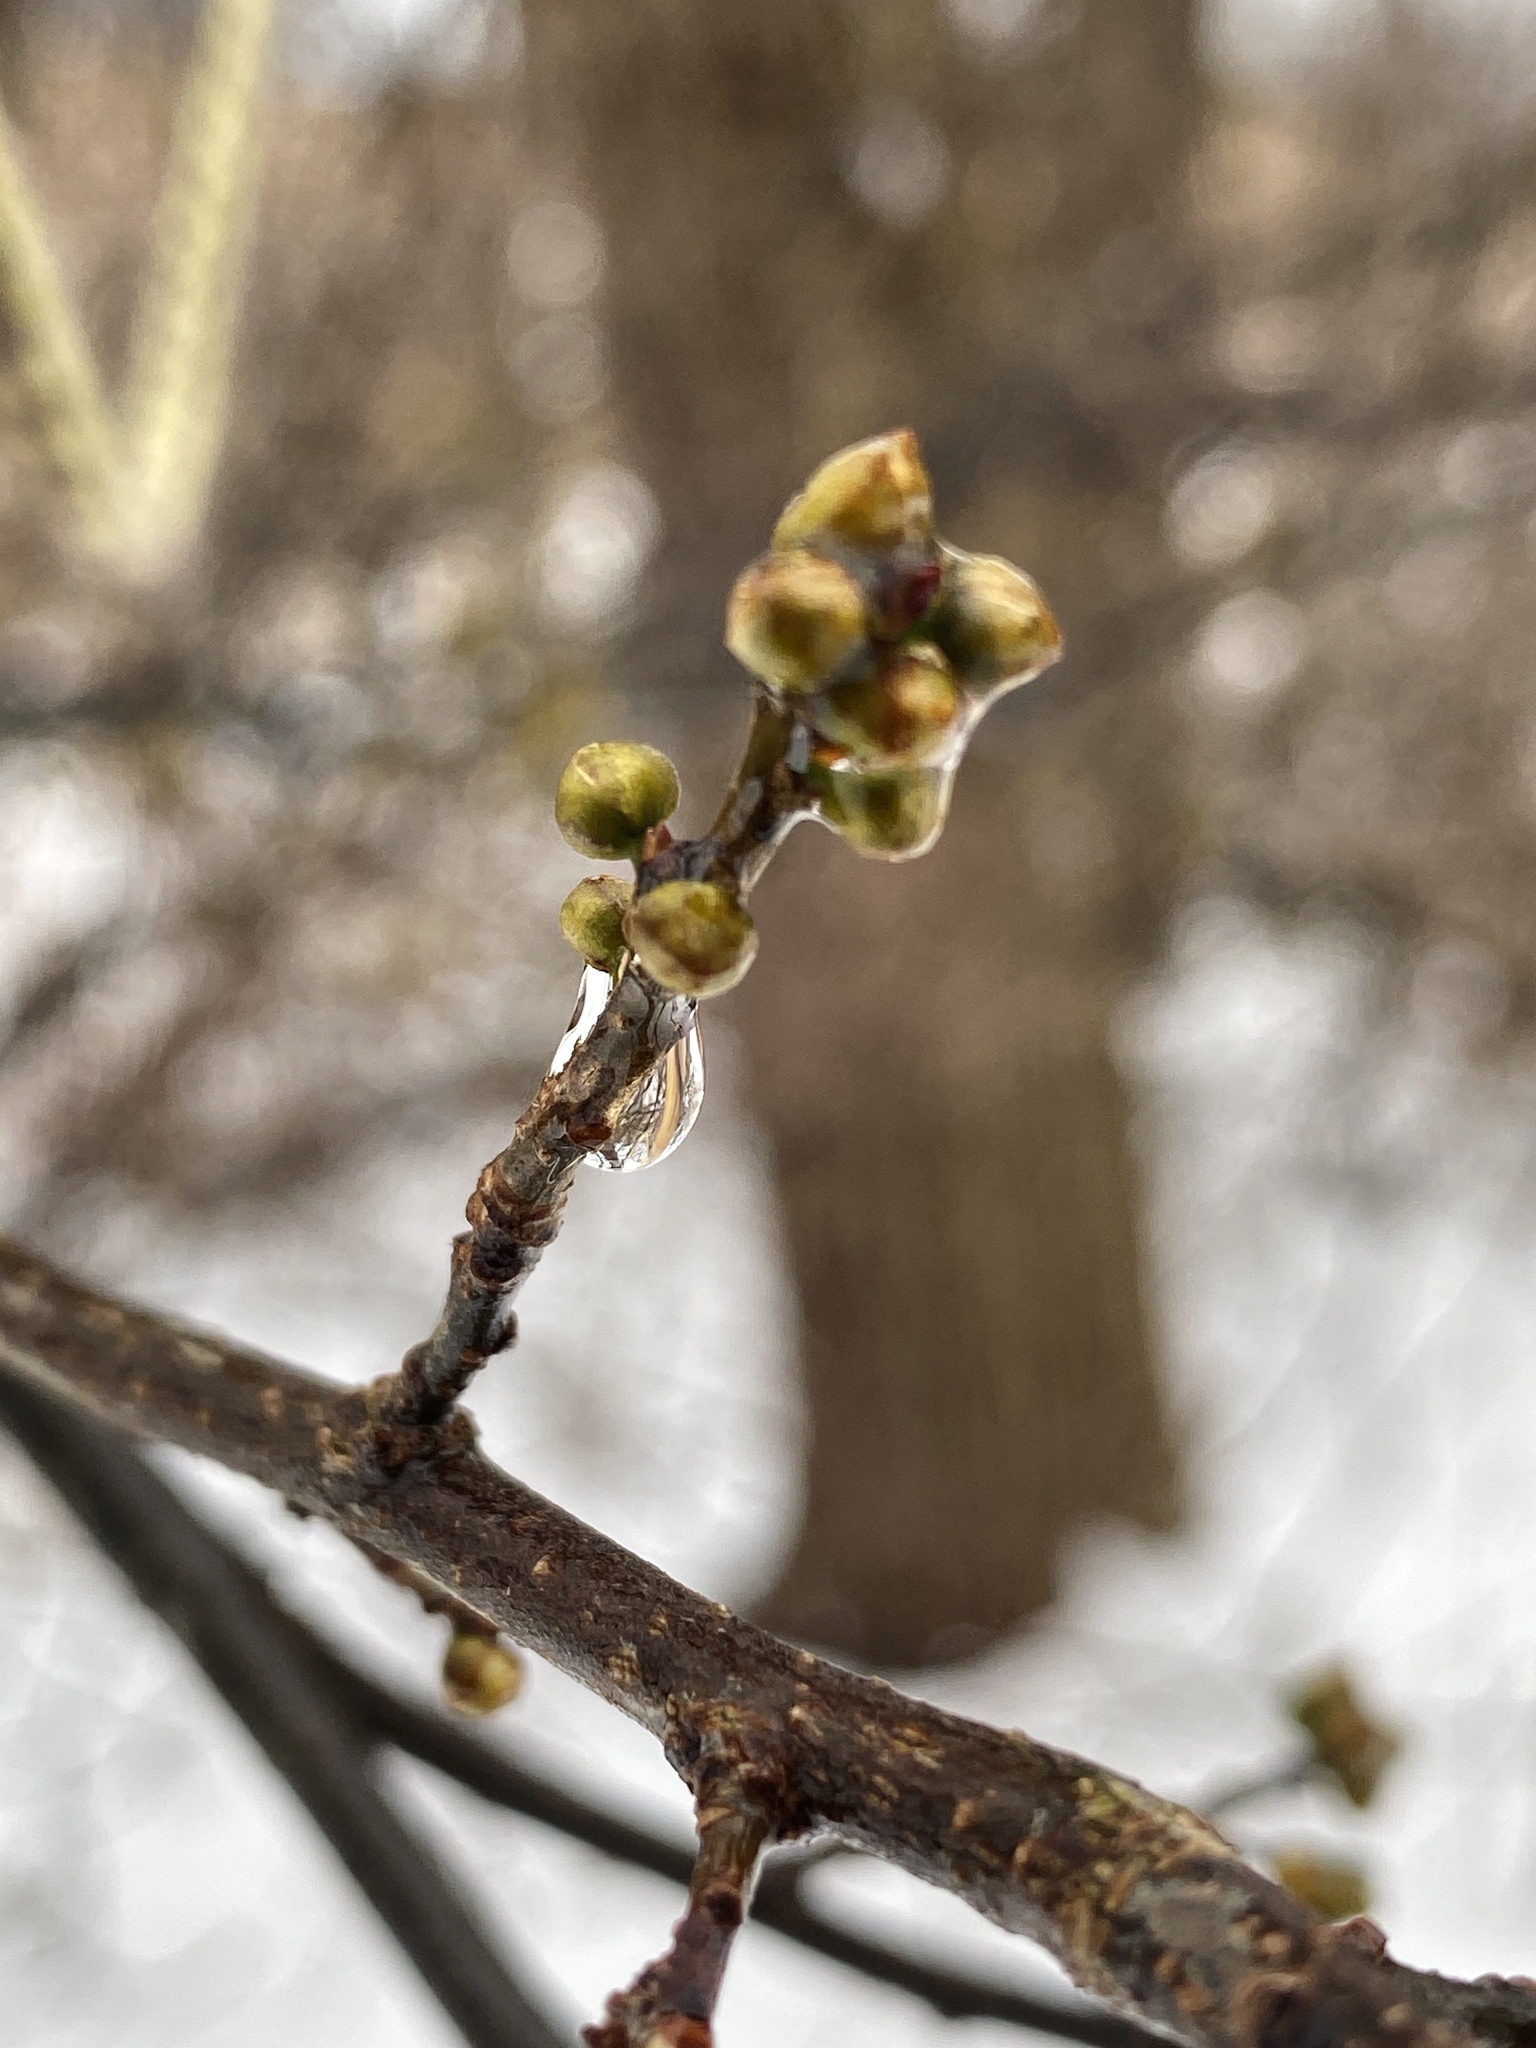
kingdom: Plantae
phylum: Tracheophyta
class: Magnoliopsida
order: Laurales
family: Lauraceae
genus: Lindera
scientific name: Lindera benzoin
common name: Spicebush
